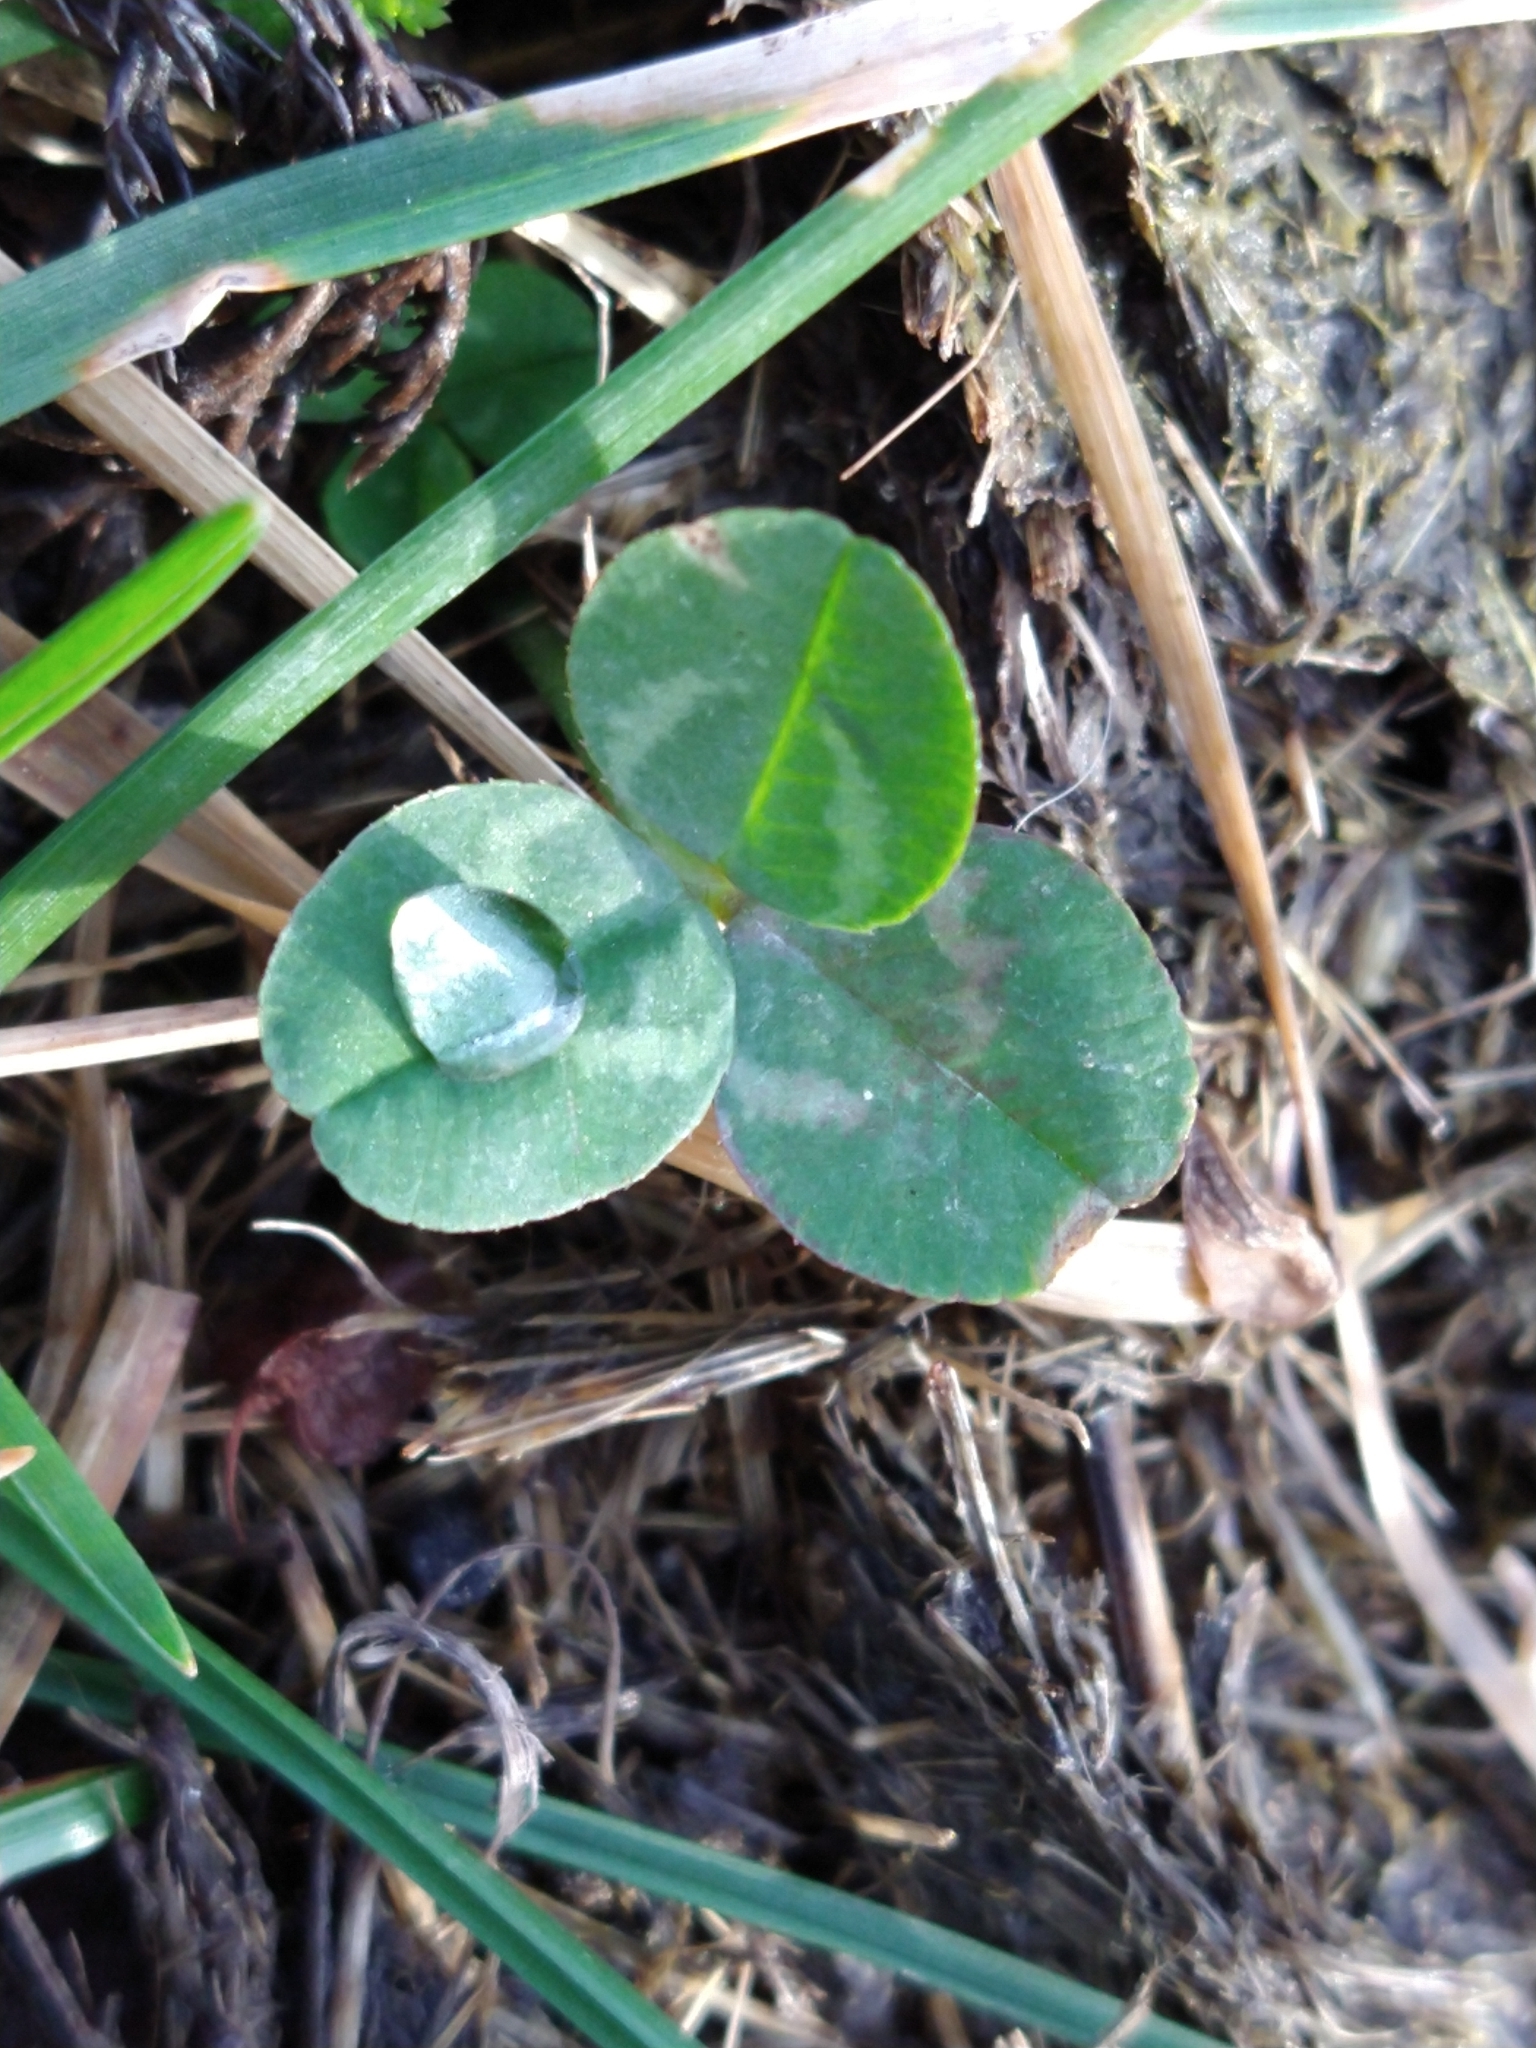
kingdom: Plantae
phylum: Tracheophyta
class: Magnoliopsida
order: Fabales
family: Fabaceae
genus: Trifolium
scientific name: Trifolium repens
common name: White clover
